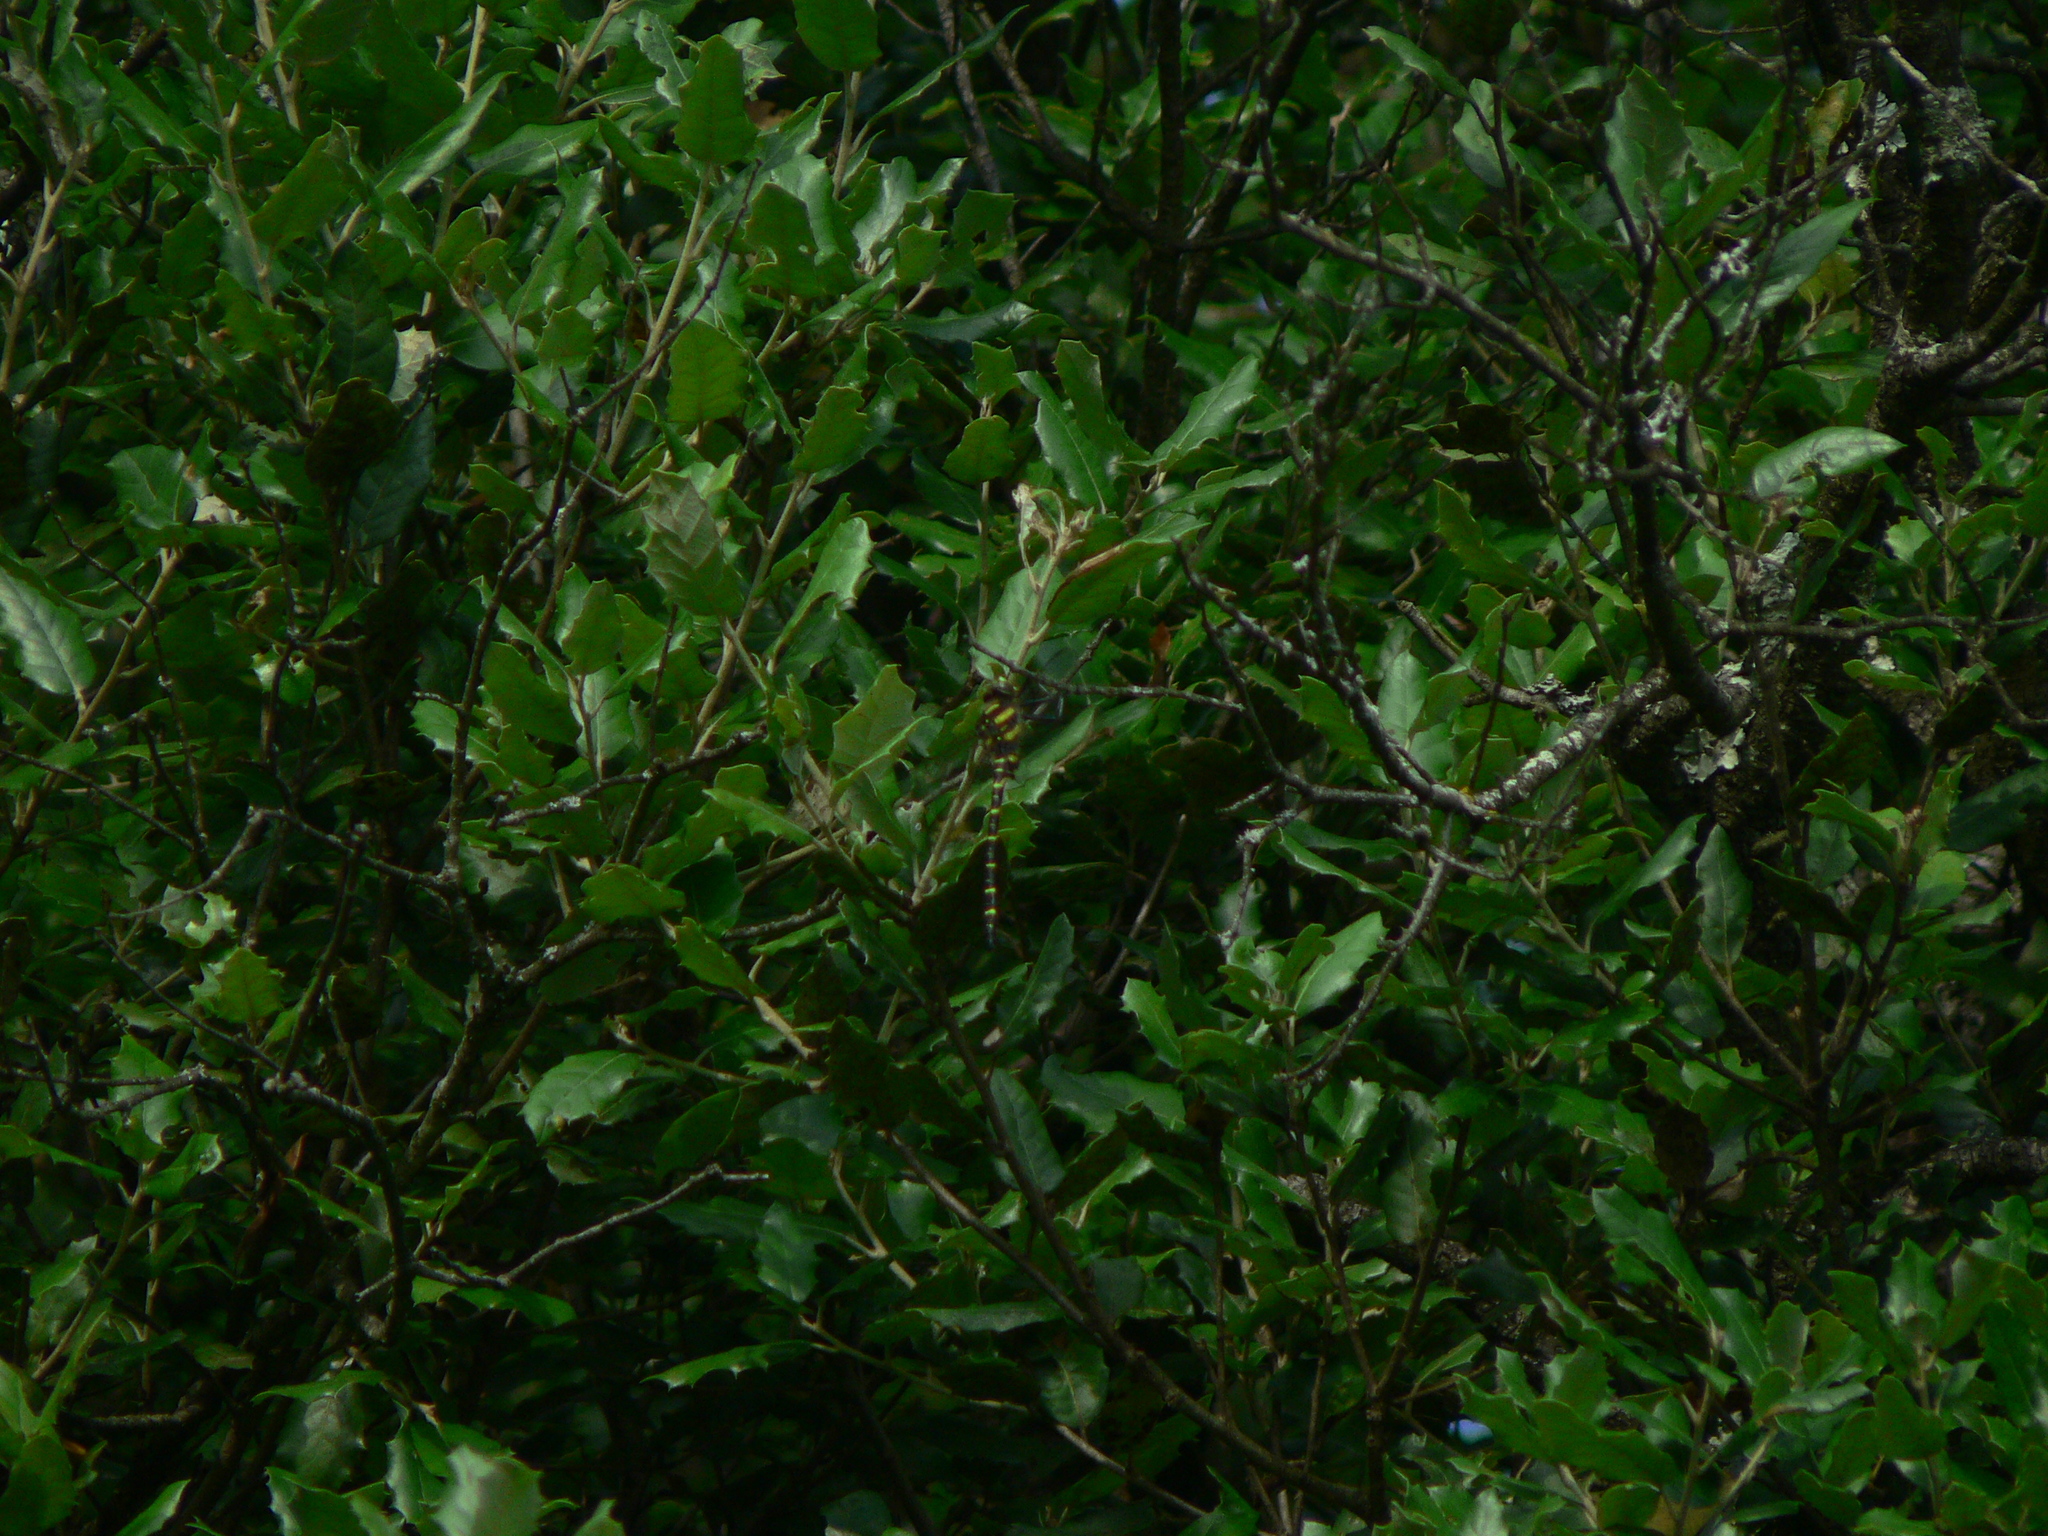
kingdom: Animalia
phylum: Arthropoda
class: Insecta
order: Odonata
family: Cordulegastridae
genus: Cordulegaster
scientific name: Cordulegaster boltonii
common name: Golden-ringed dragonfly
